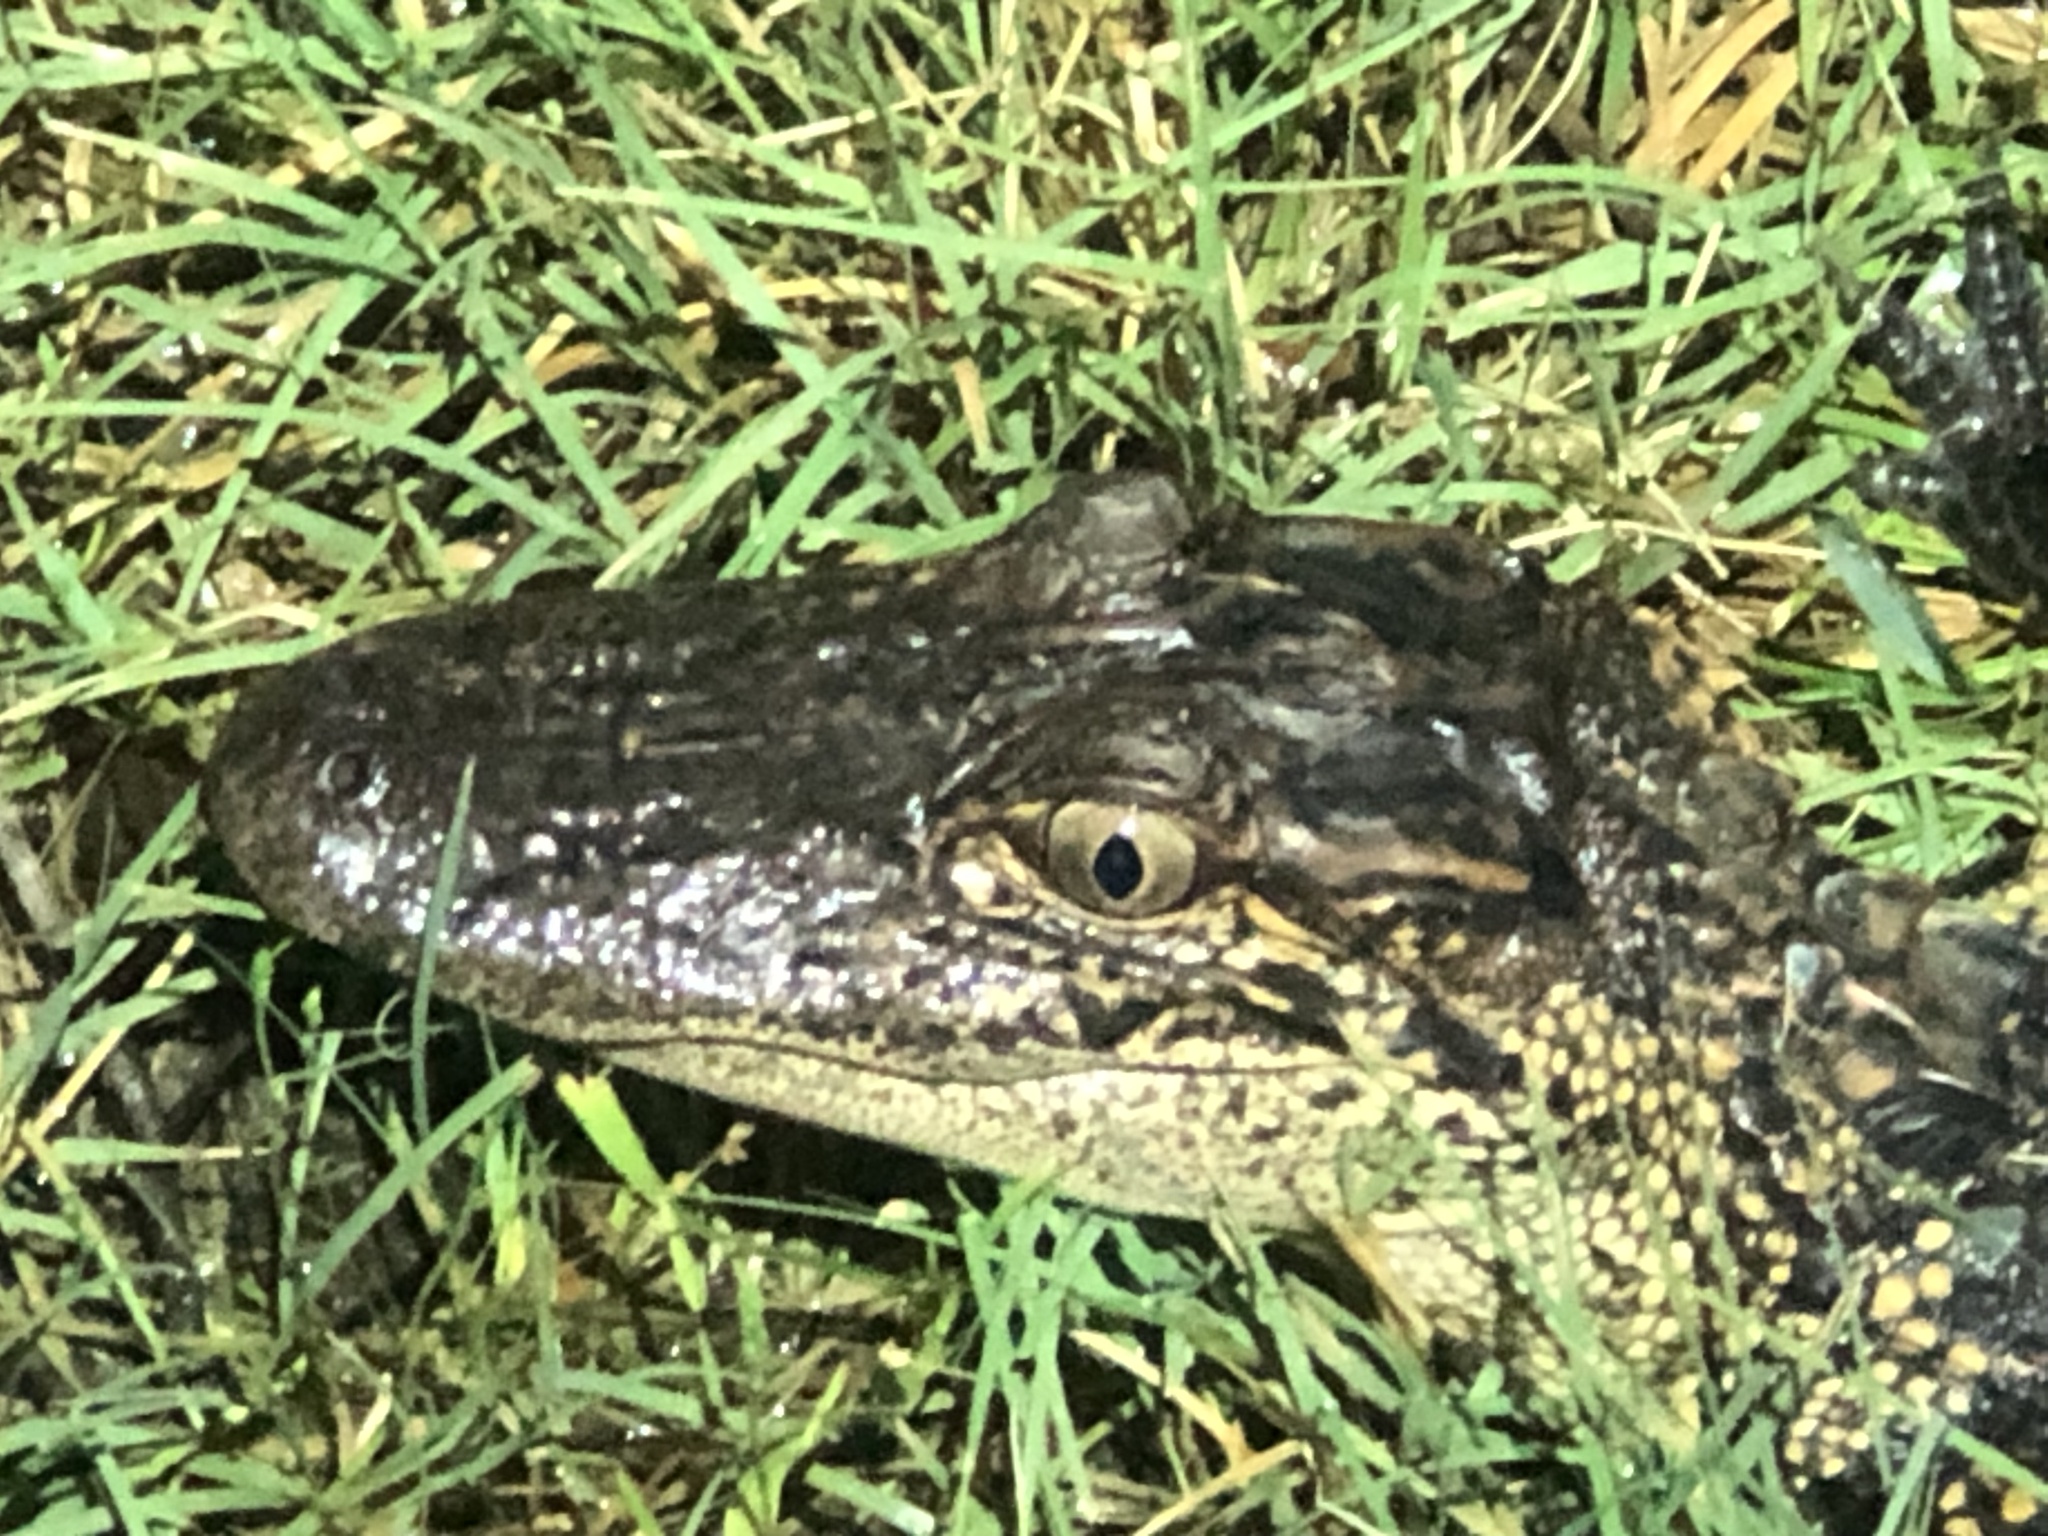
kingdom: Animalia
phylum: Chordata
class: Crocodylia
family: Alligatoridae
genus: Alligator
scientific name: Alligator mississippiensis
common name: American alligator
